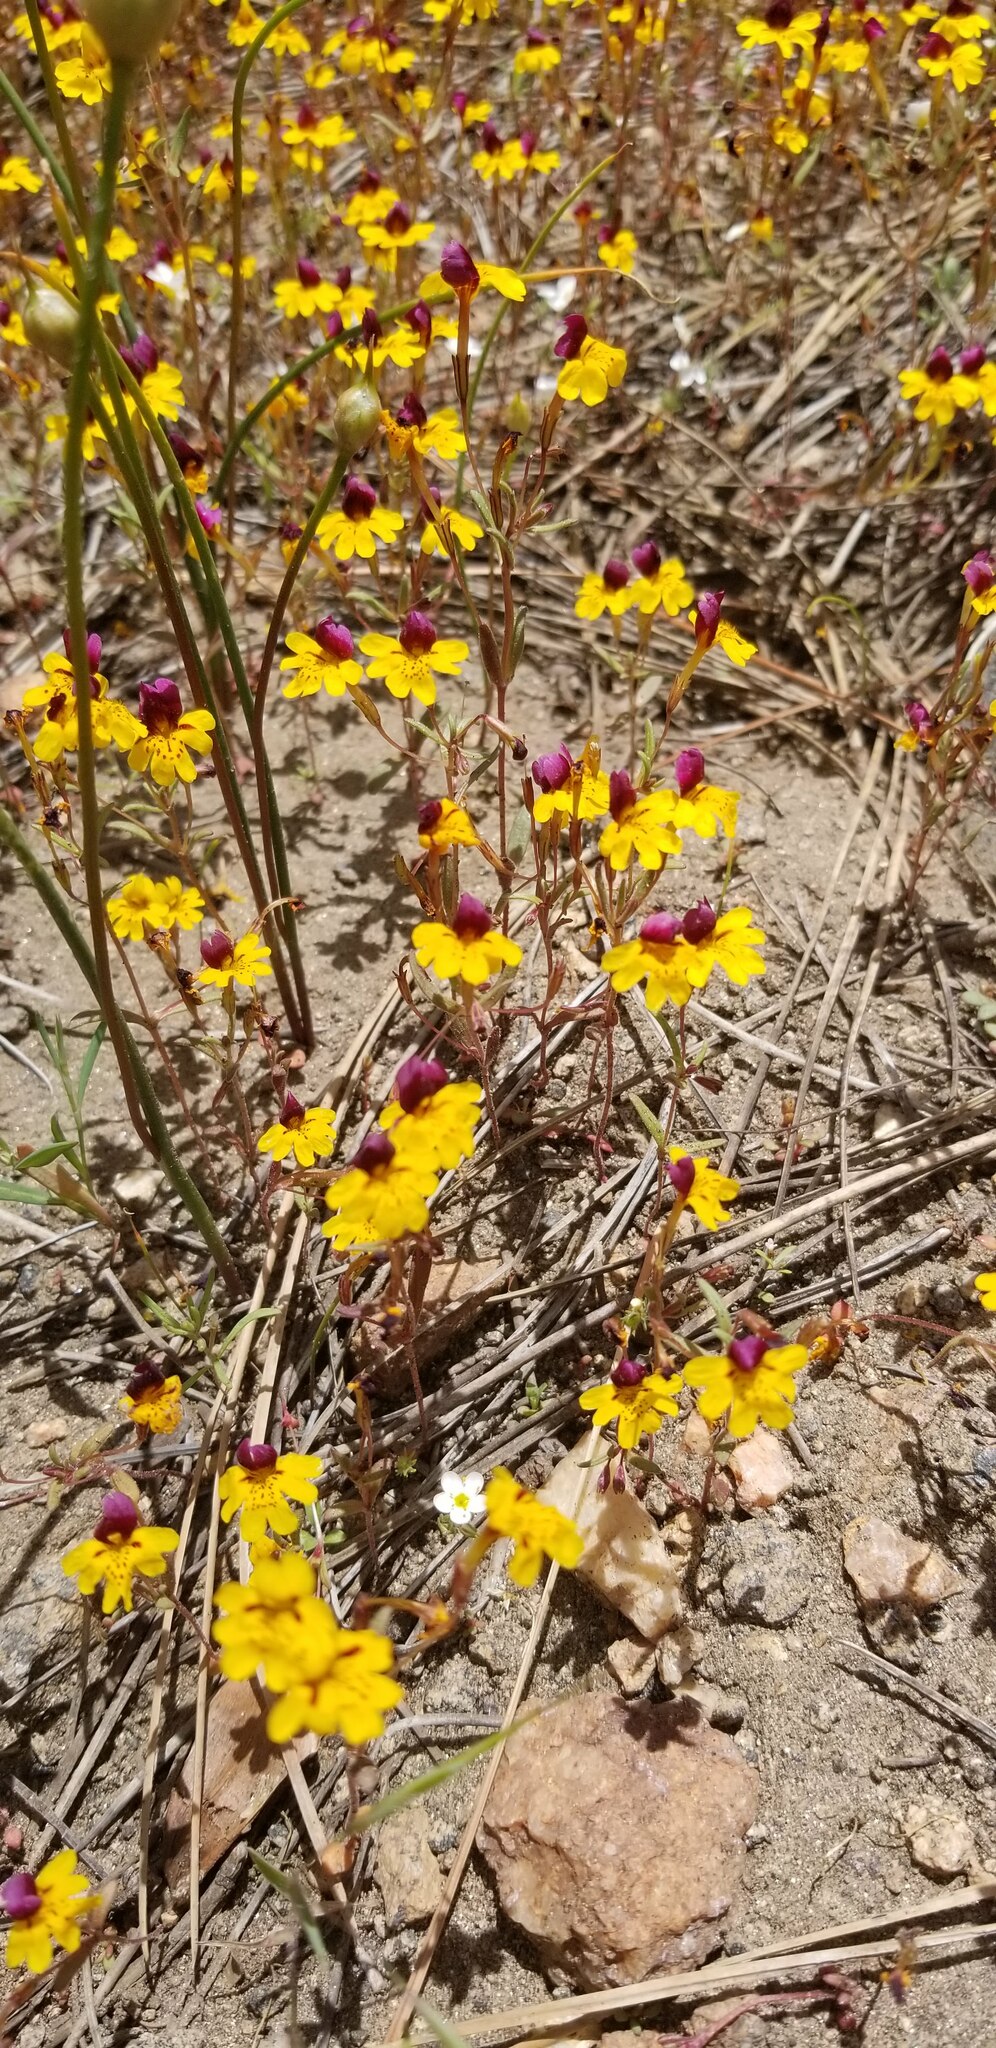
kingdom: Plantae
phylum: Tracheophyta
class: Magnoliopsida
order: Lamiales
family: Phrymaceae
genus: Erythranthe
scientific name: Erythranthe barbata
